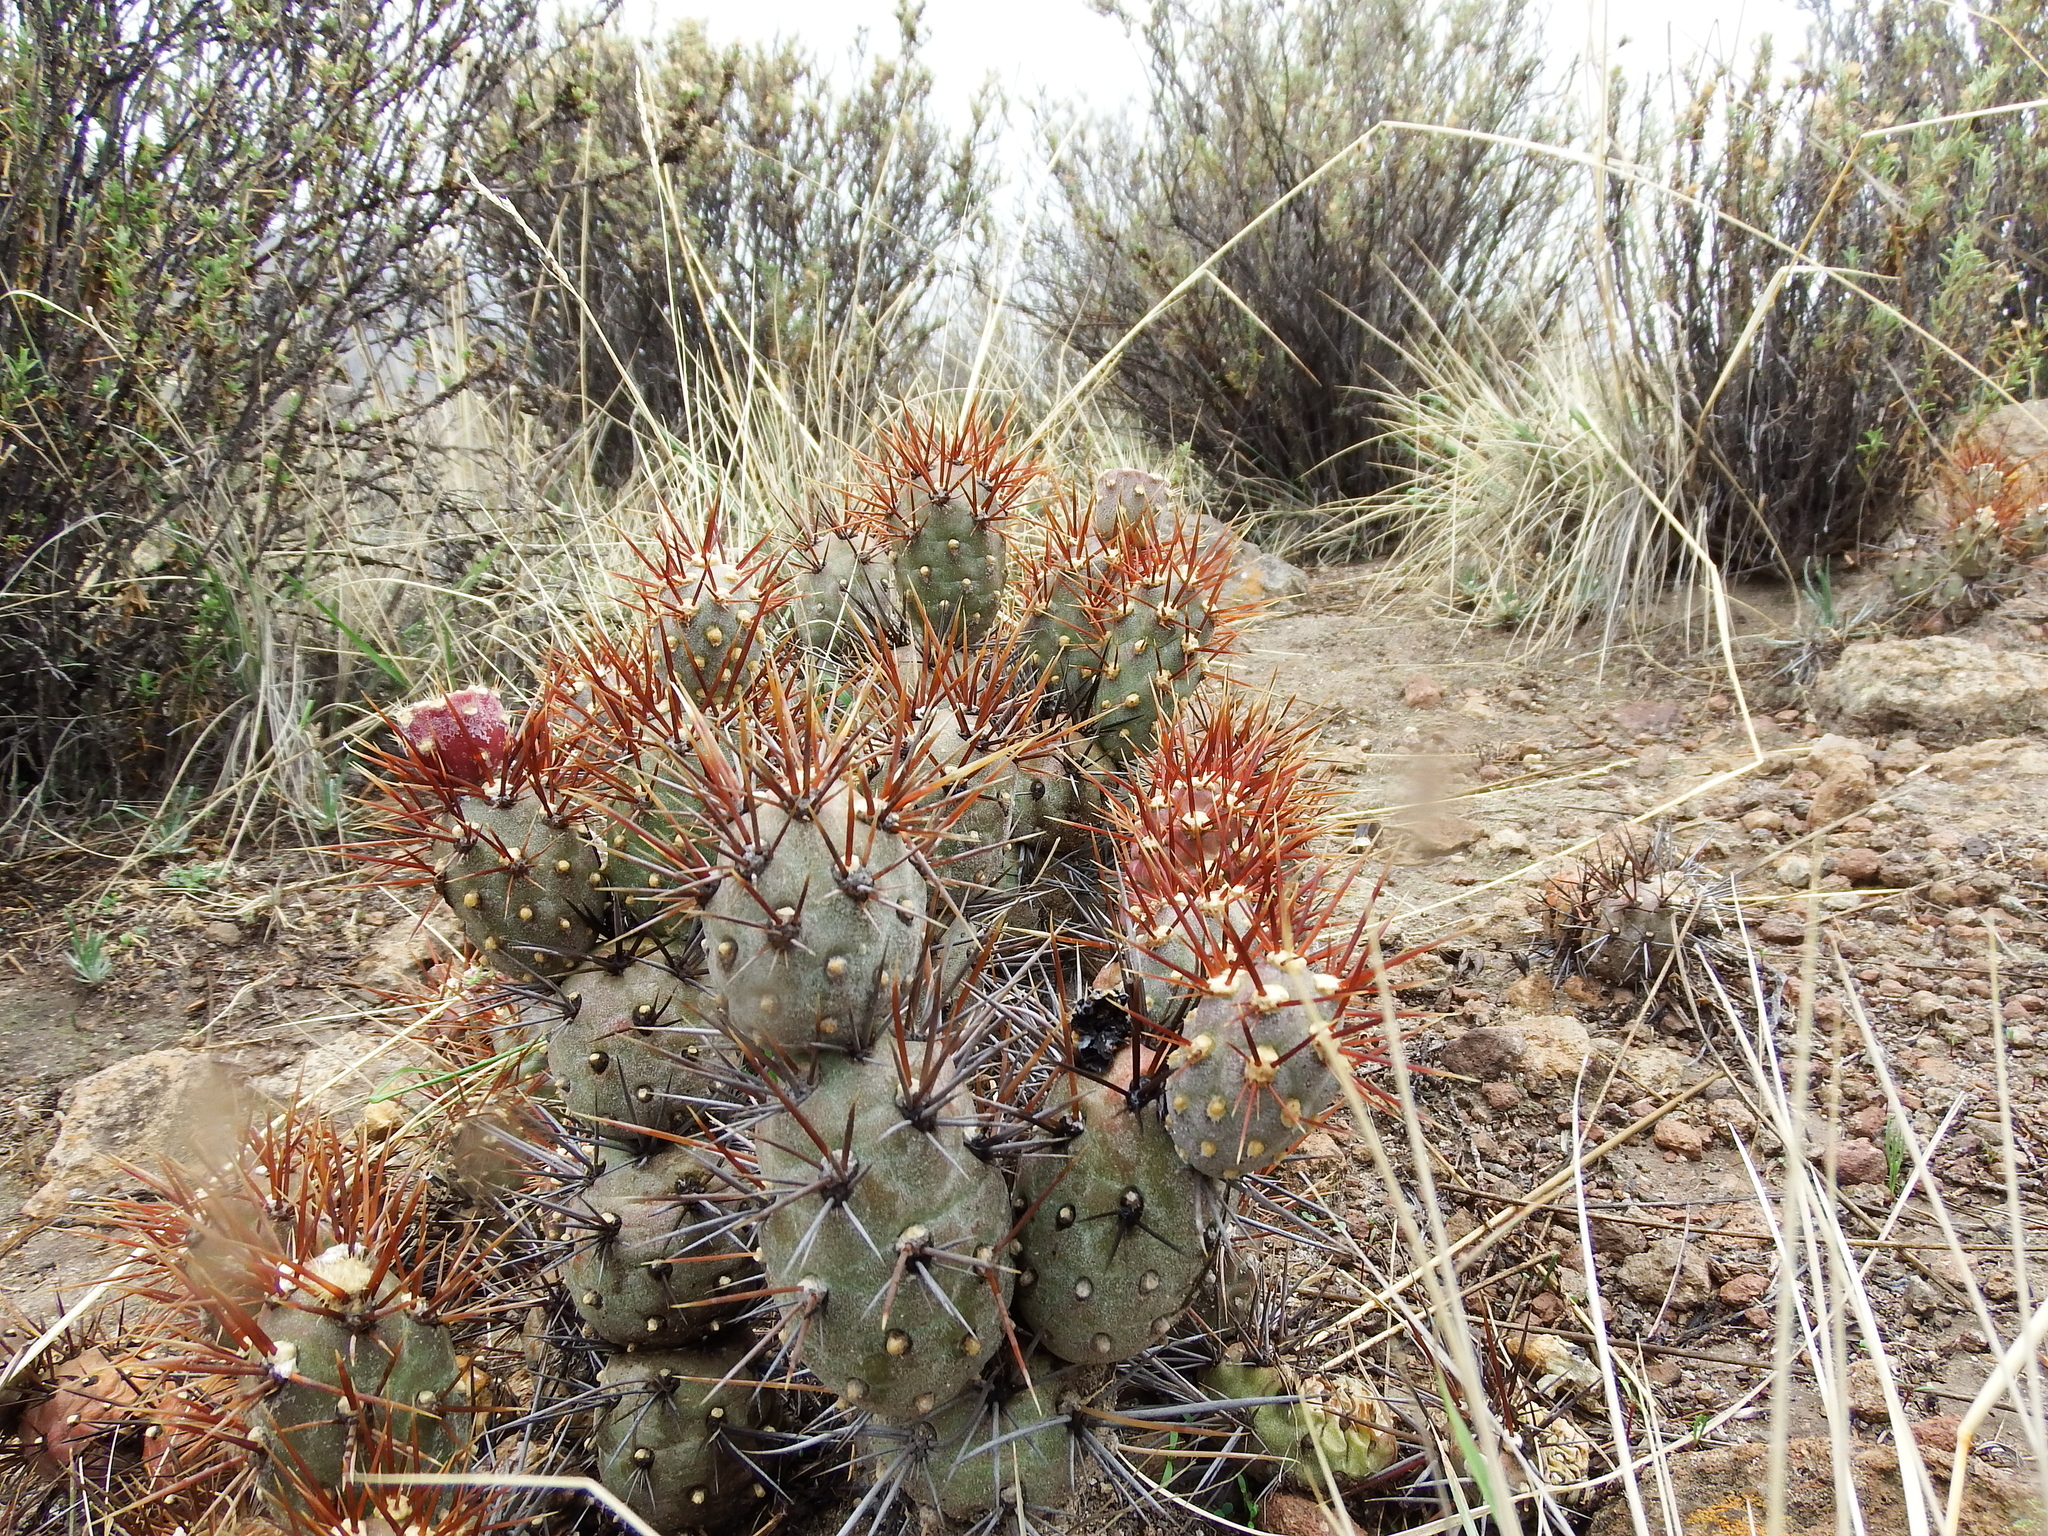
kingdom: Plantae
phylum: Tracheophyta
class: Magnoliopsida
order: Caryophyllales
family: Cactaceae
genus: Cumulopuntia
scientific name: Cumulopuntia leucophaea
